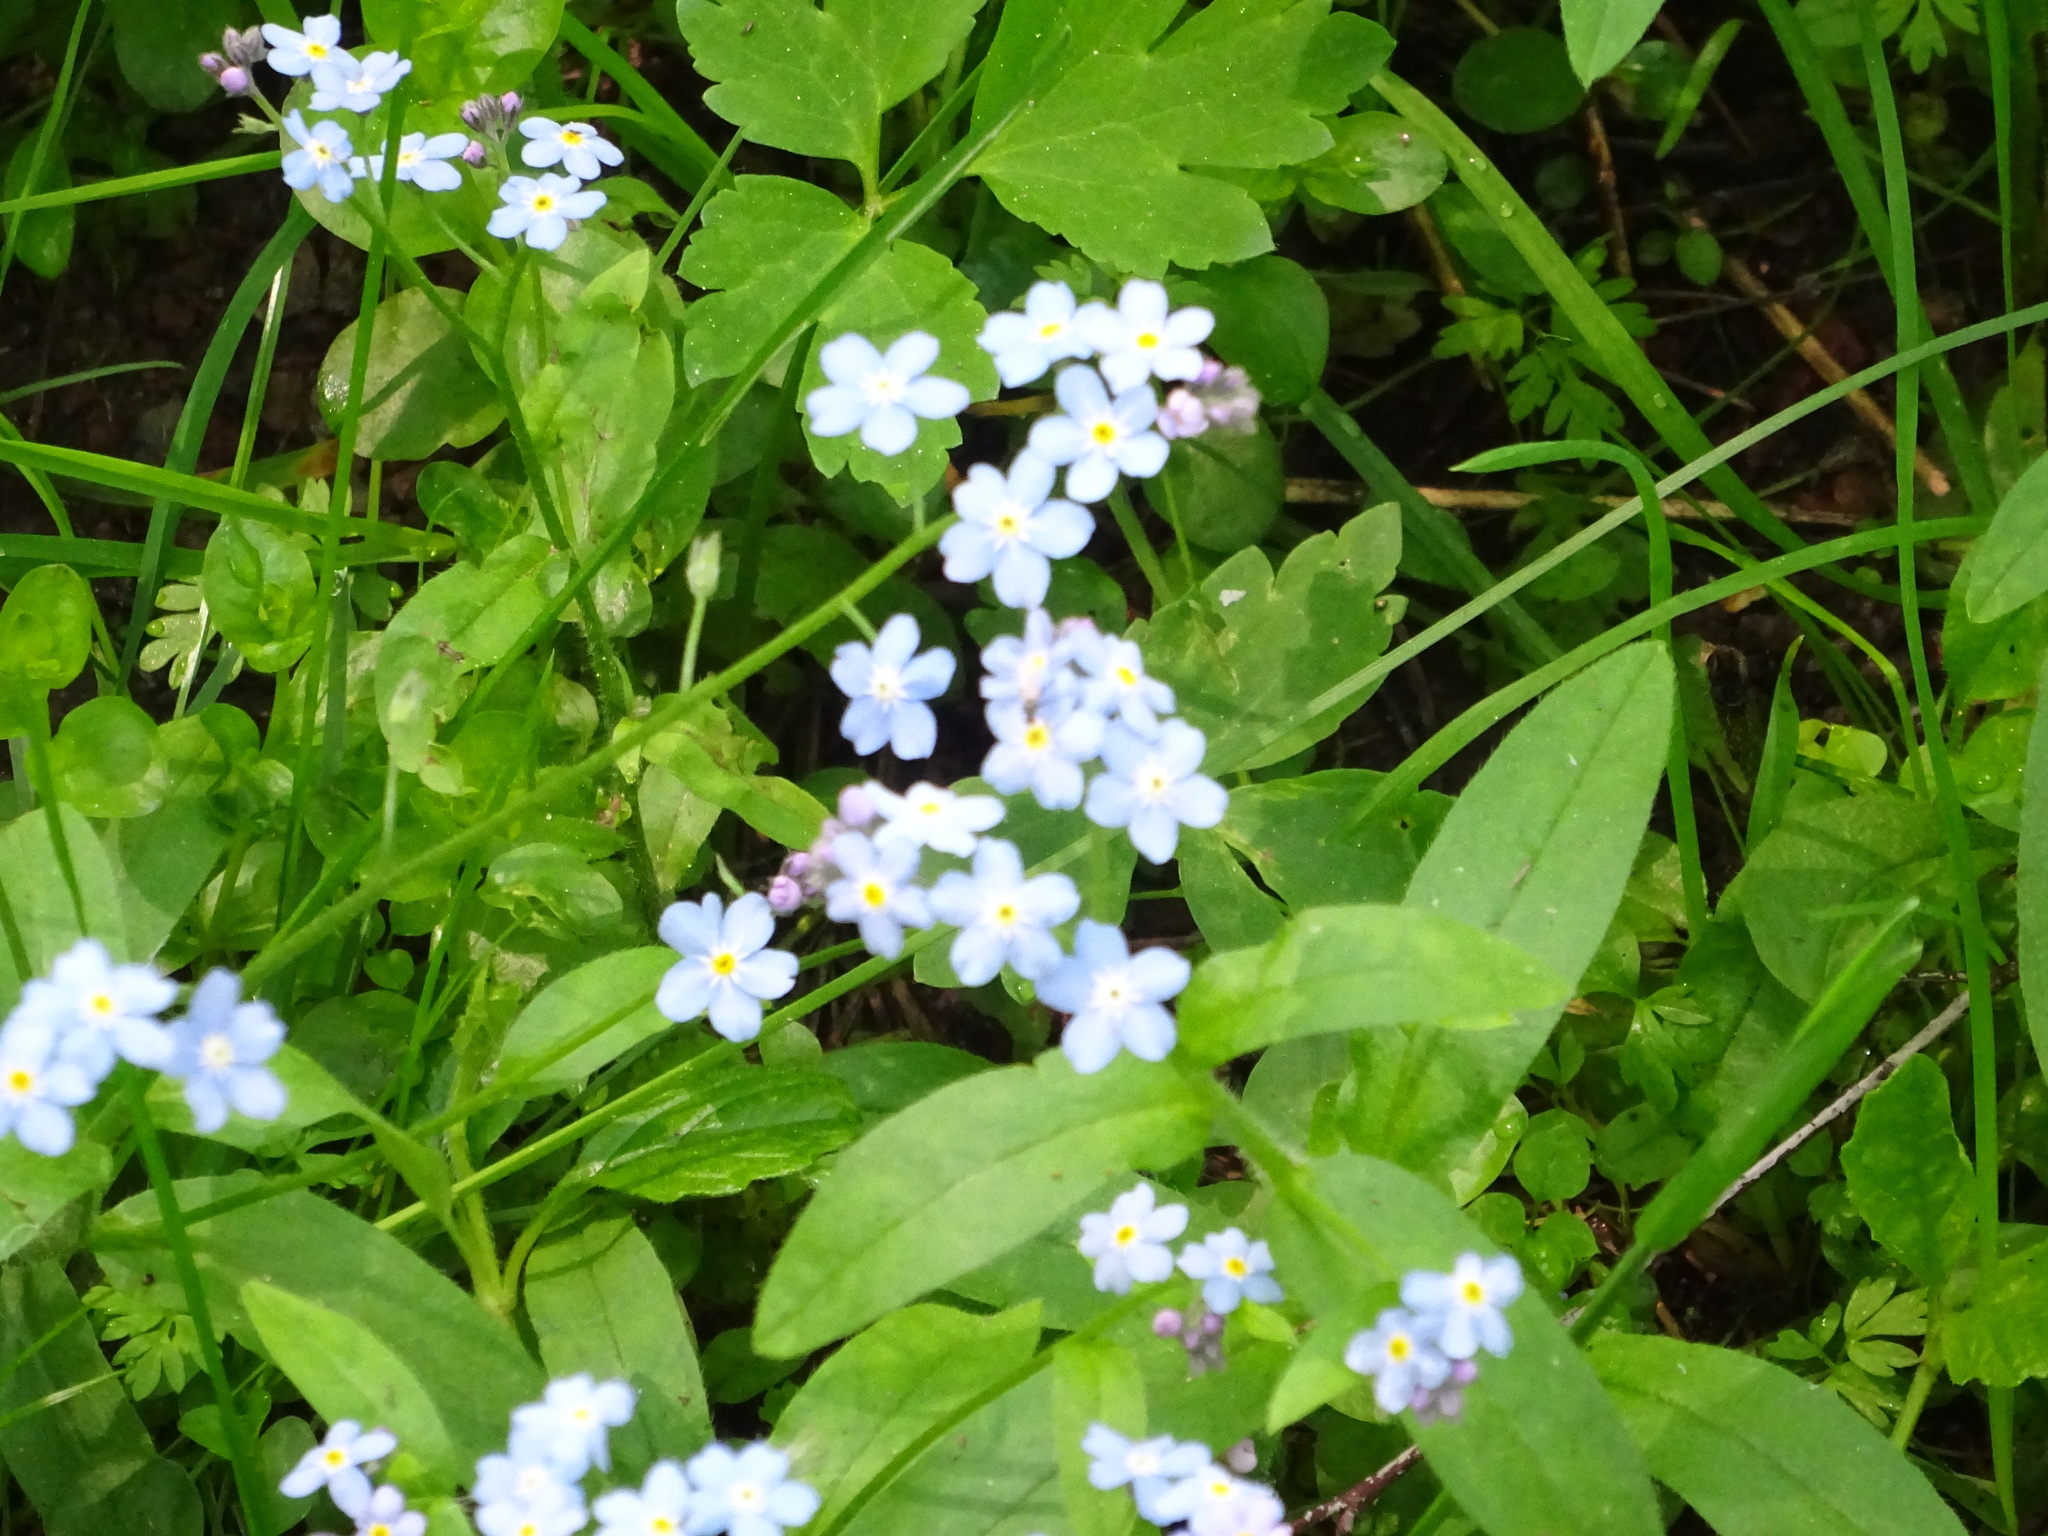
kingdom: Plantae
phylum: Tracheophyta
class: Magnoliopsida
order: Boraginales
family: Boraginaceae
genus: Myosotis
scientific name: Myosotis sylvatica
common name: Wood forget-me-not
